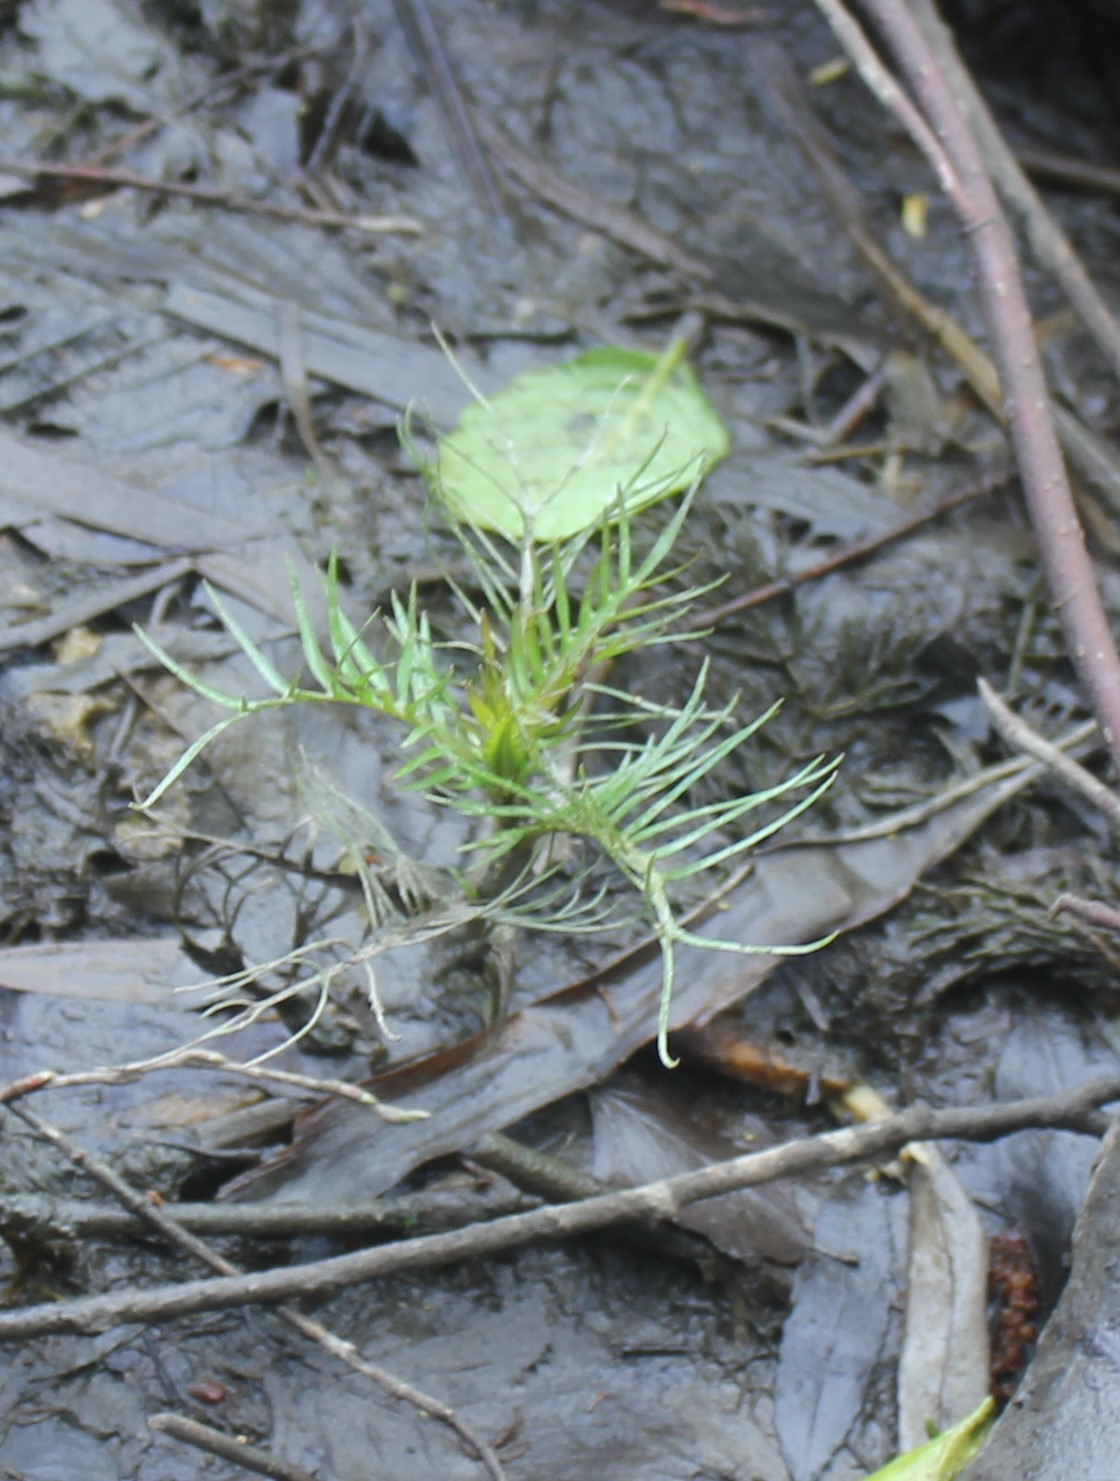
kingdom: Plantae
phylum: Tracheophyta
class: Magnoliopsida
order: Brassicales
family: Brassicaceae
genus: Rorippa
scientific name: Rorippa amphibia
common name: Great yellow-cress
